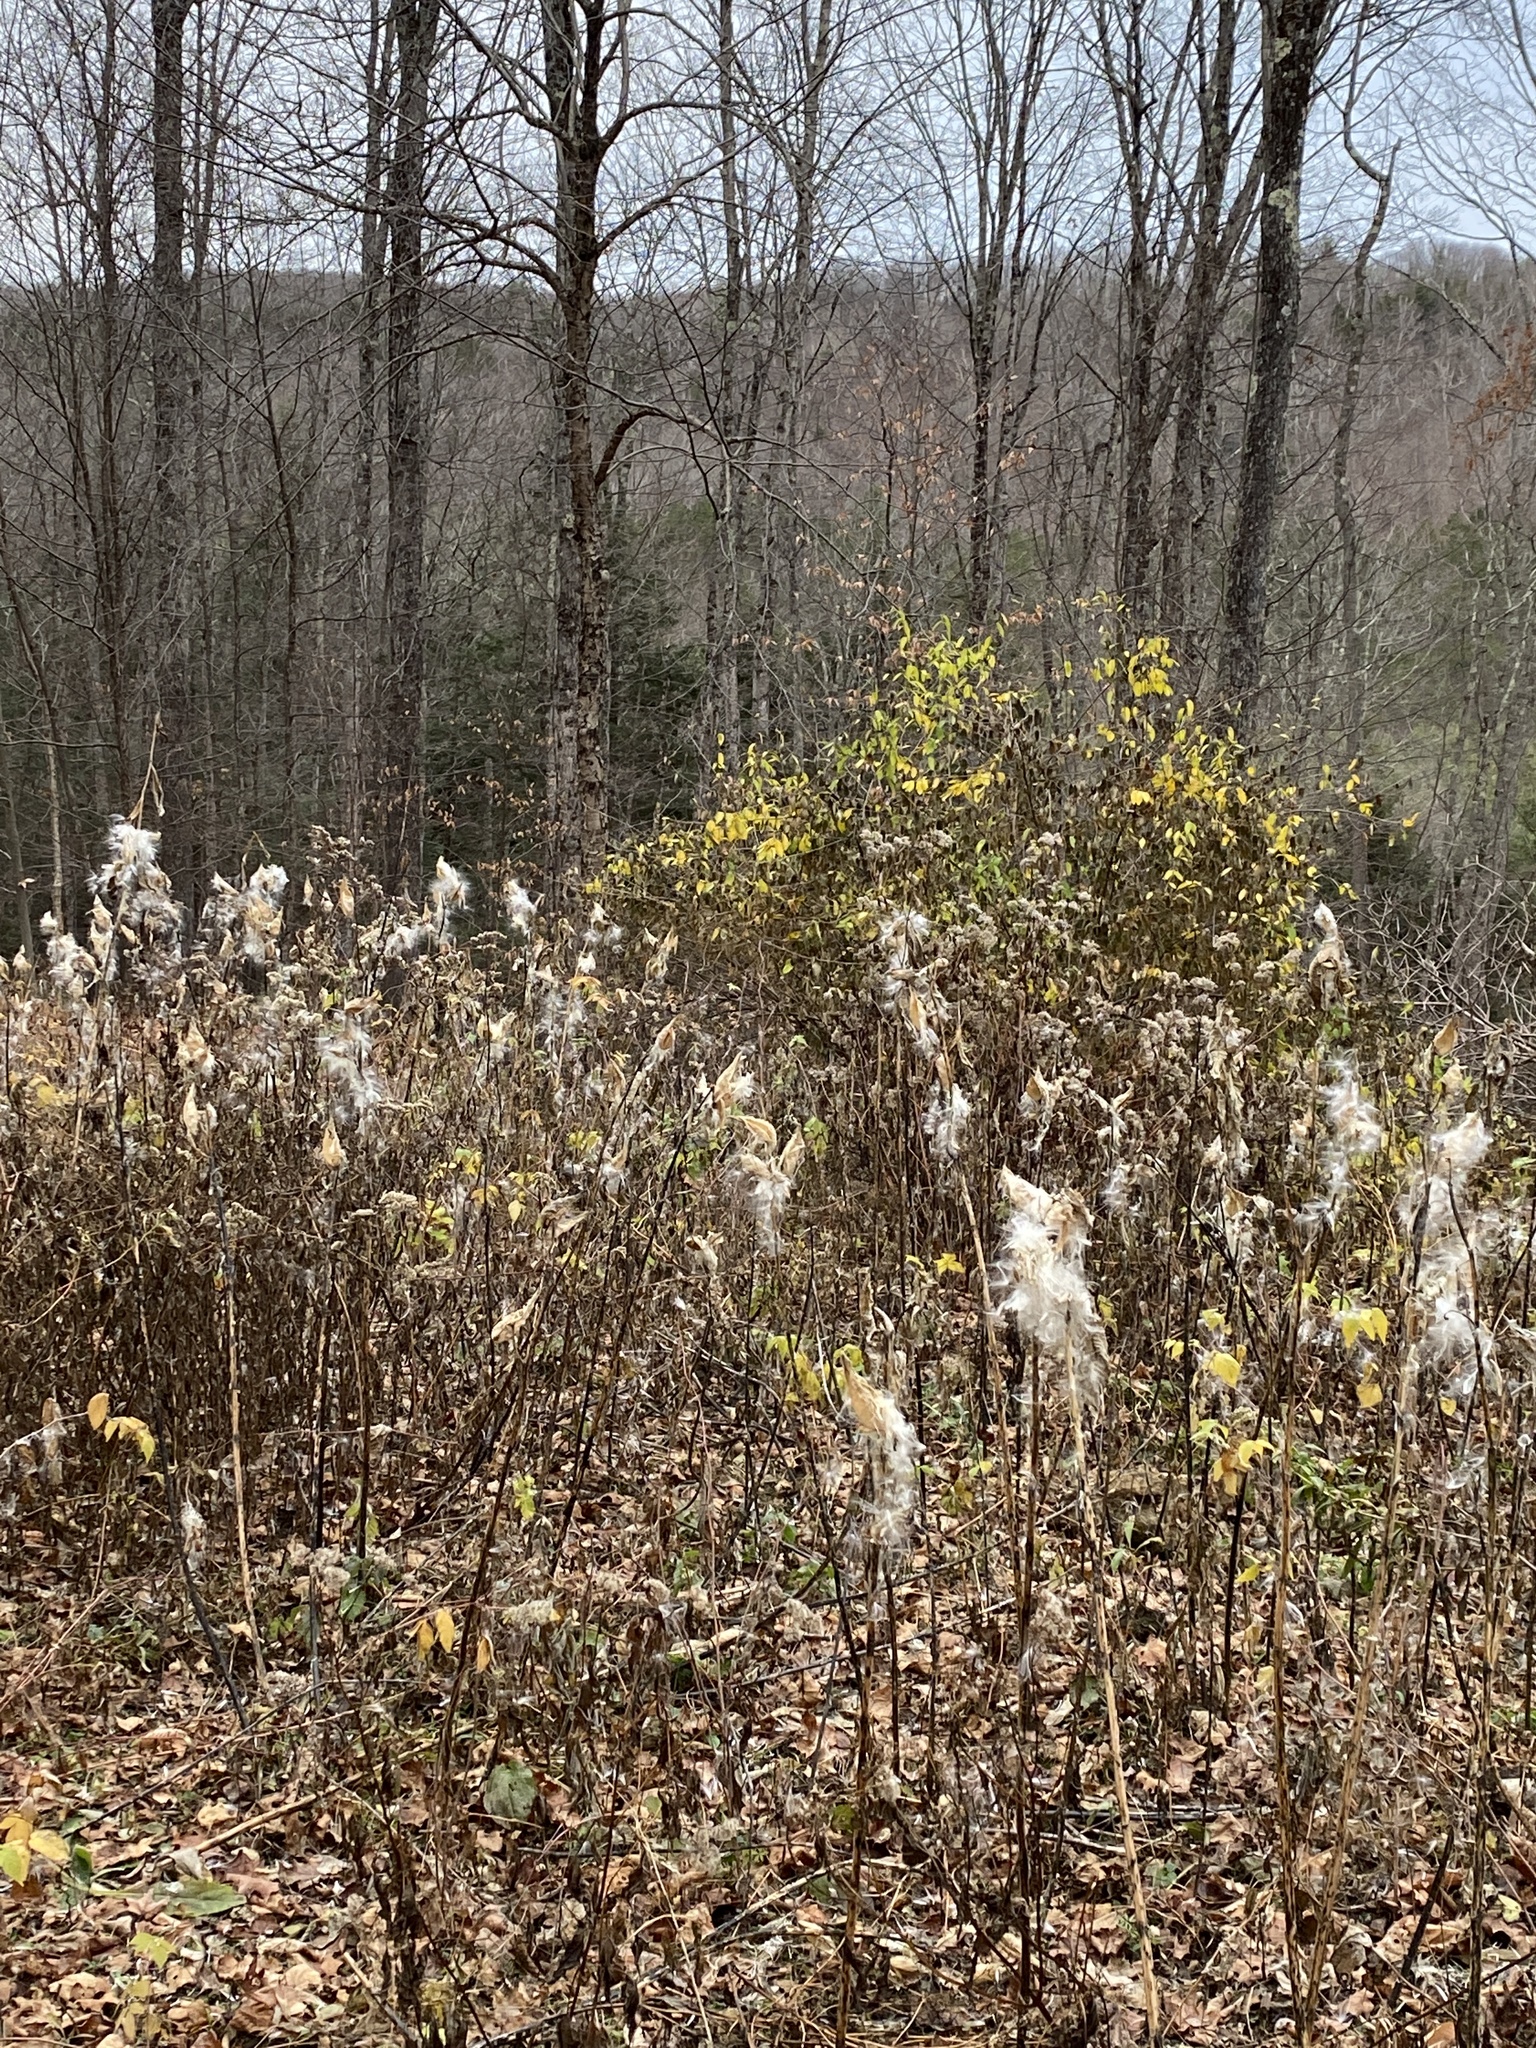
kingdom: Plantae
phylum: Tracheophyta
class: Magnoliopsida
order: Gentianales
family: Apocynaceae
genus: Asclepias
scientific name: Asclepias syriaca
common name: Common milkweed
